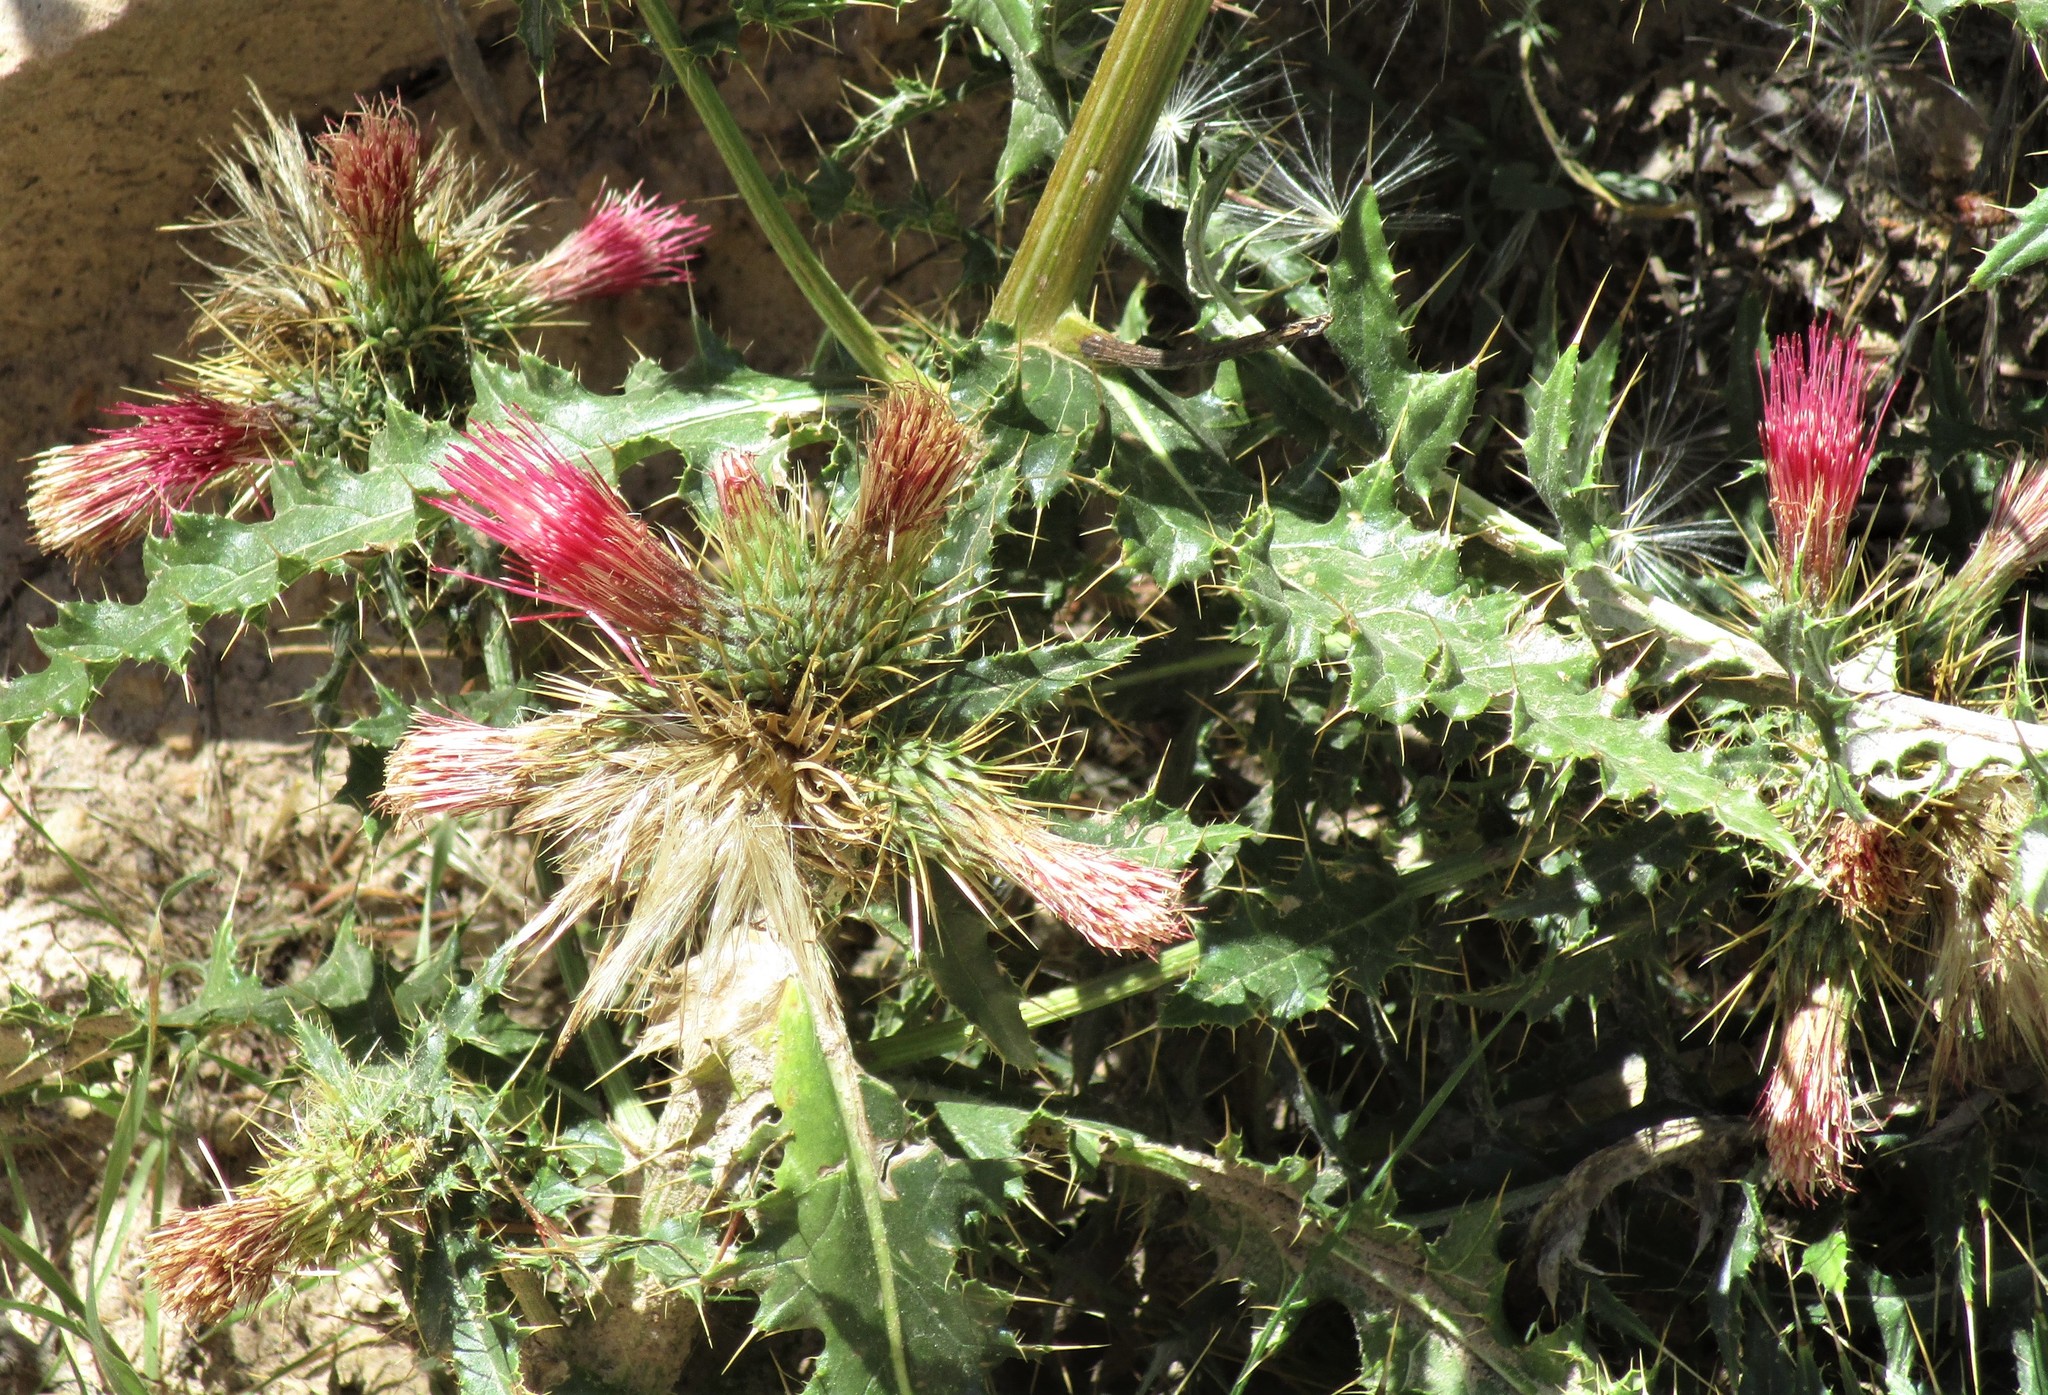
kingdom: Plantae
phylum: Tracheophyta
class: Magnoliopsida
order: Asterales
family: Asteraceae
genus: Cirsium
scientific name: Cirsium arizonicum
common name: Arizona thistle
